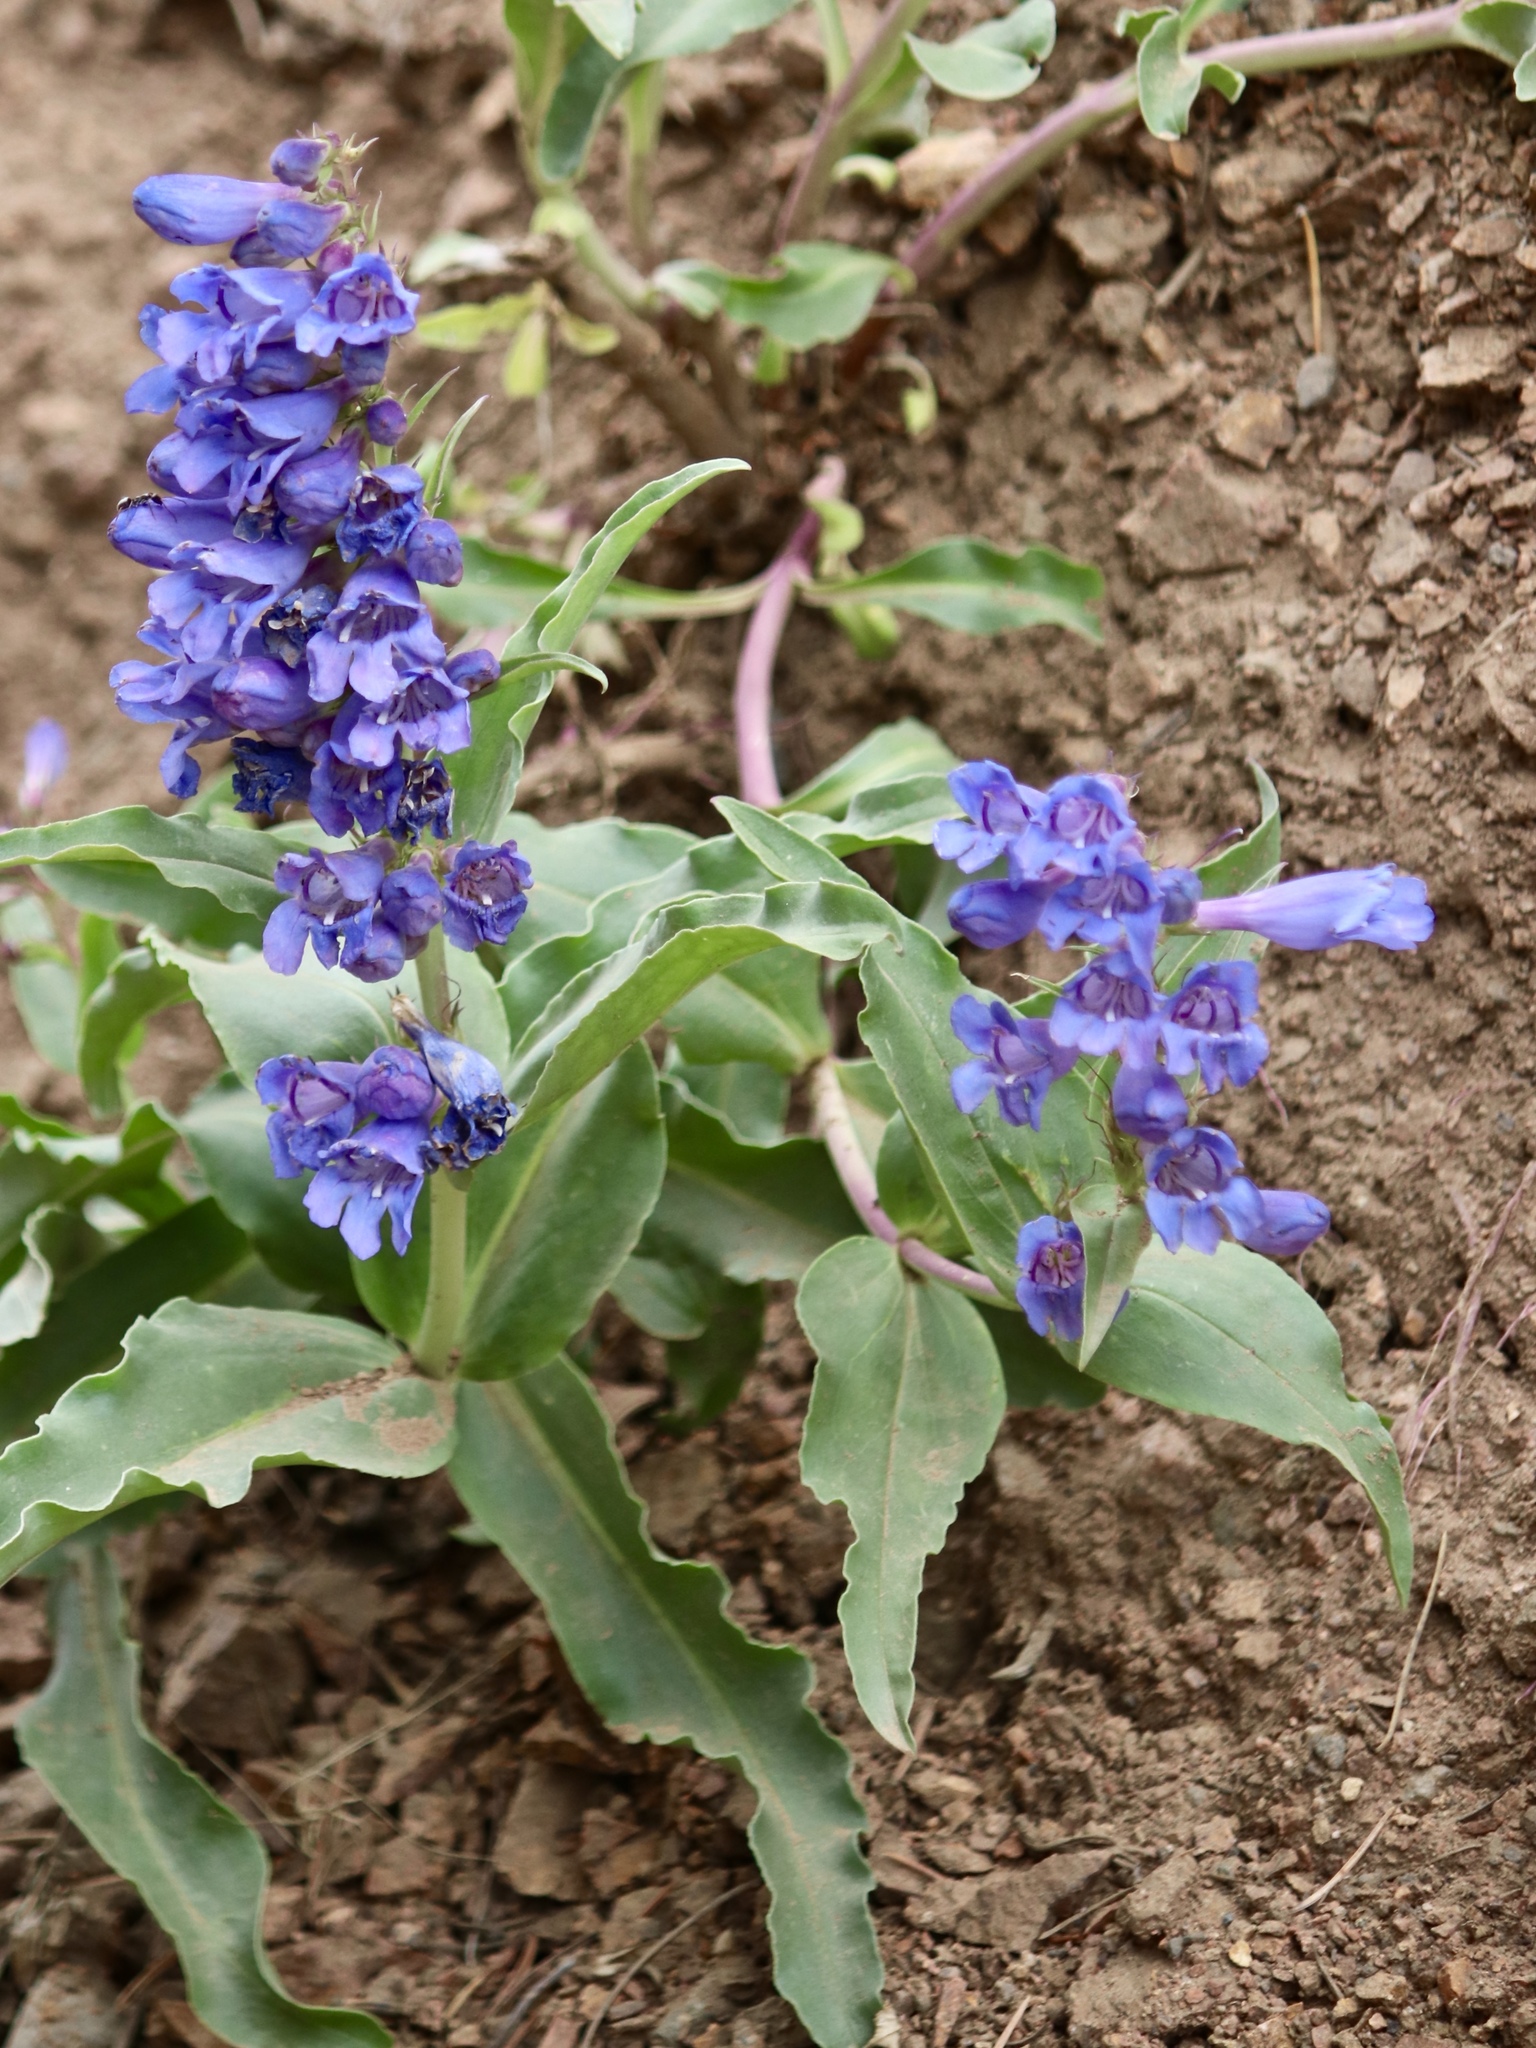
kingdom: Plantae
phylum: Tracheophyta
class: Magnoliopsida
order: Lamiales
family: Plantaginaceae
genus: Penstemon
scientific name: Penstemon strictus
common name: Rocky mountain penstemon
